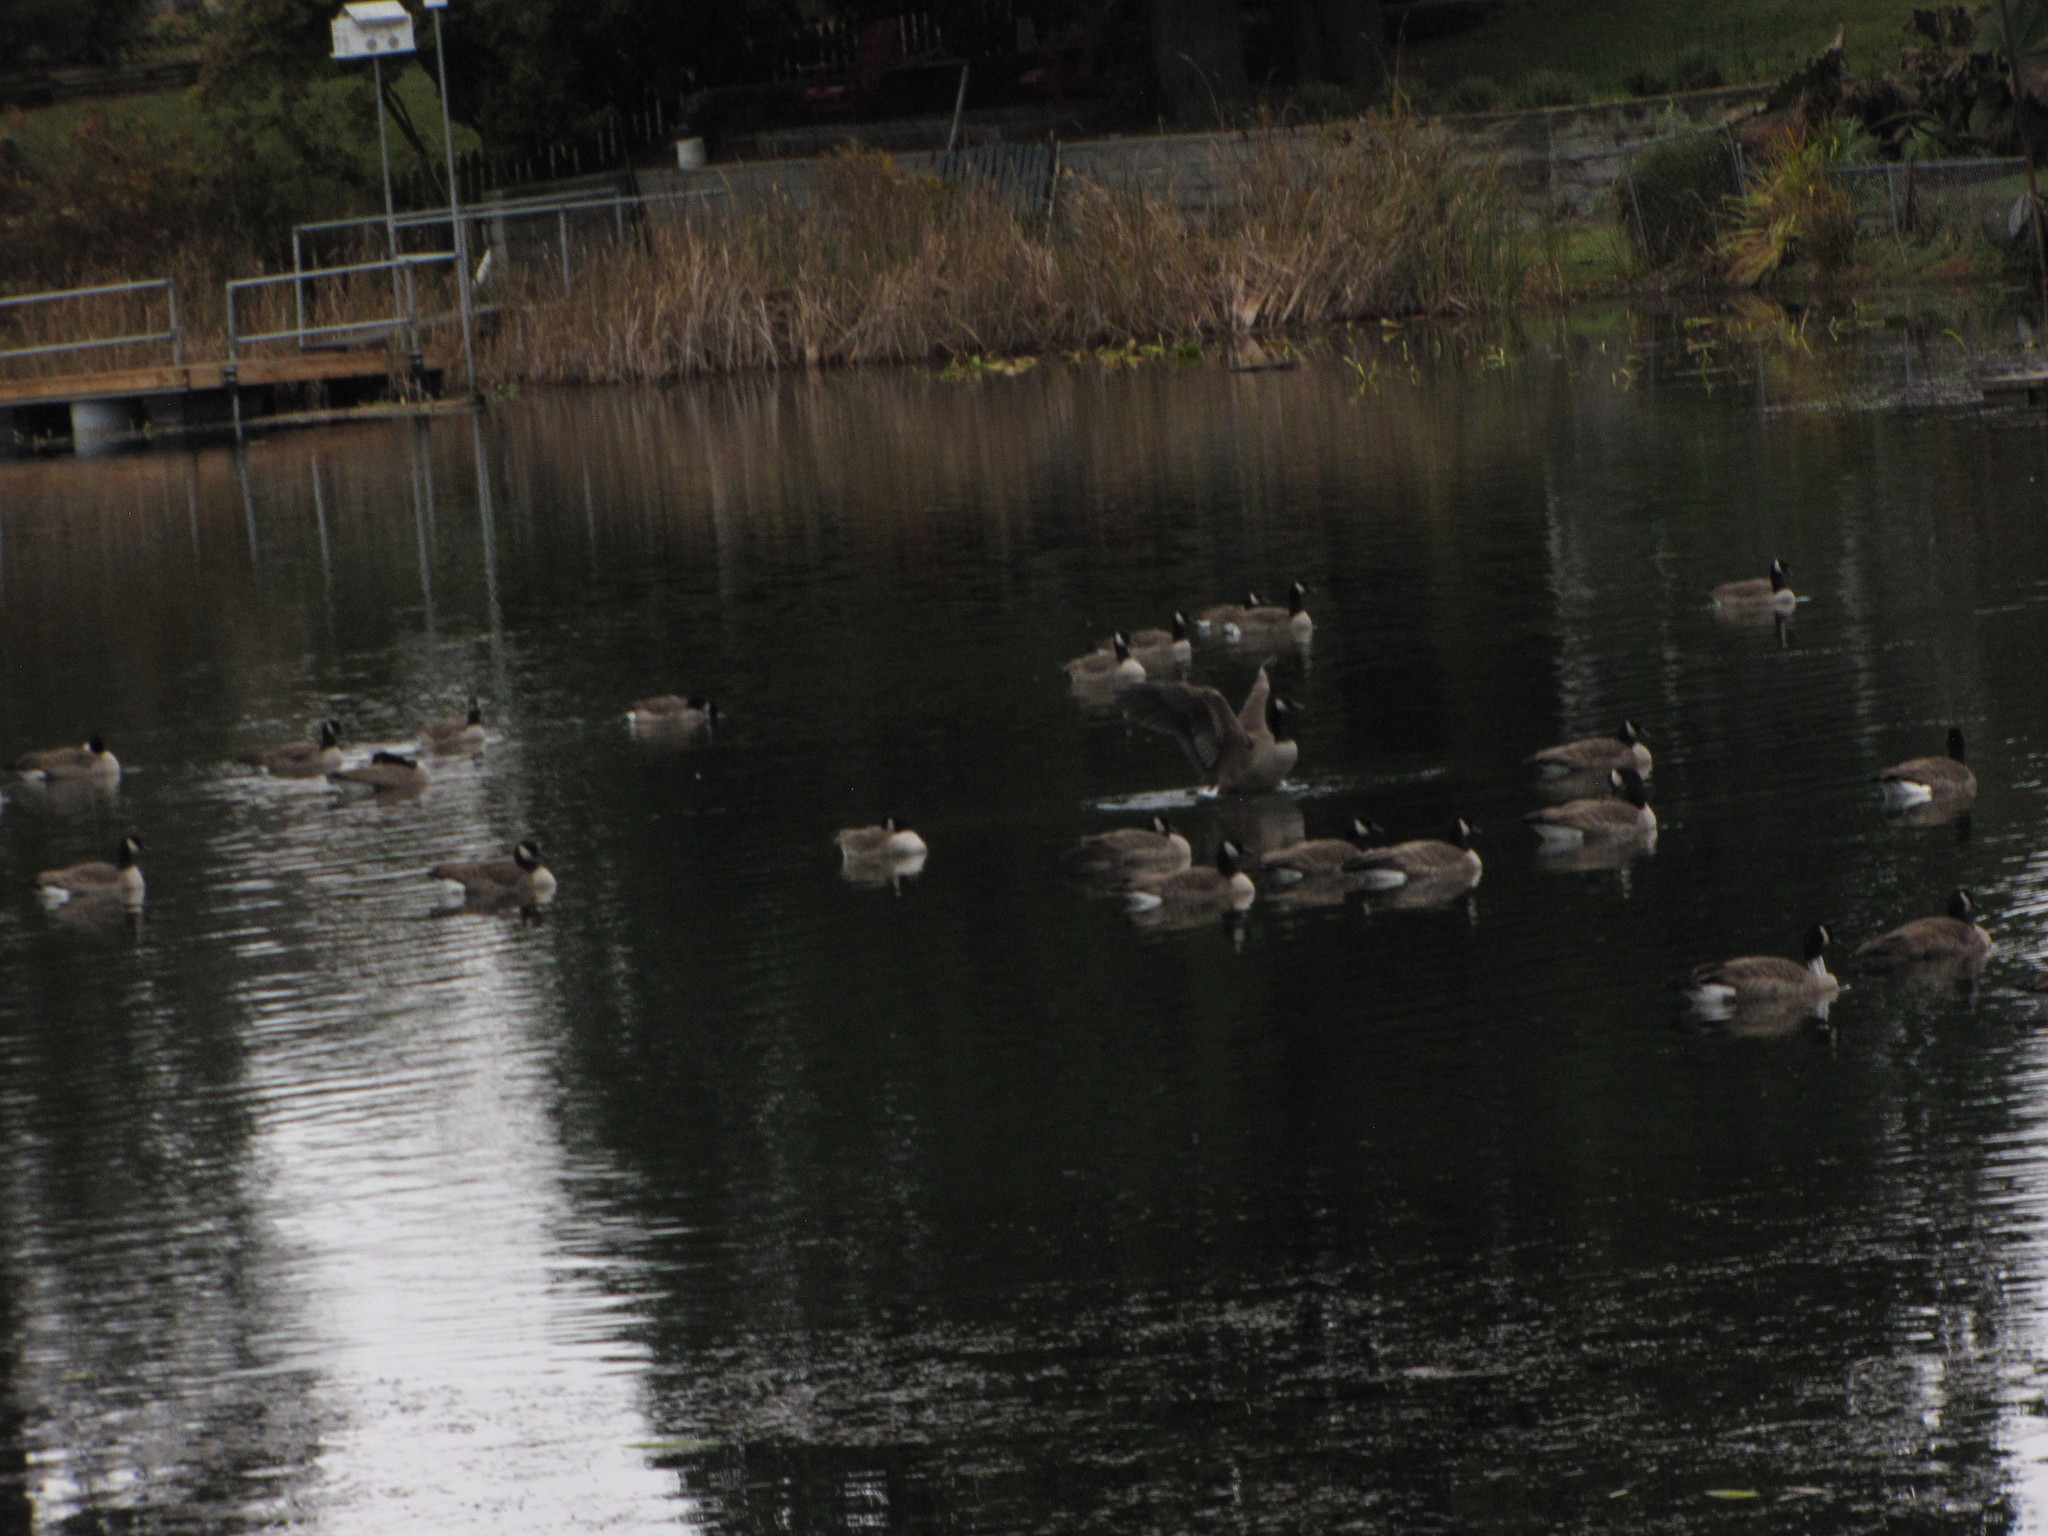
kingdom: Animalia
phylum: Chordata
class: Aves
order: Anseriformes
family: Anatidae
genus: Branta
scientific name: Branta canadensis
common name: Canada goose
